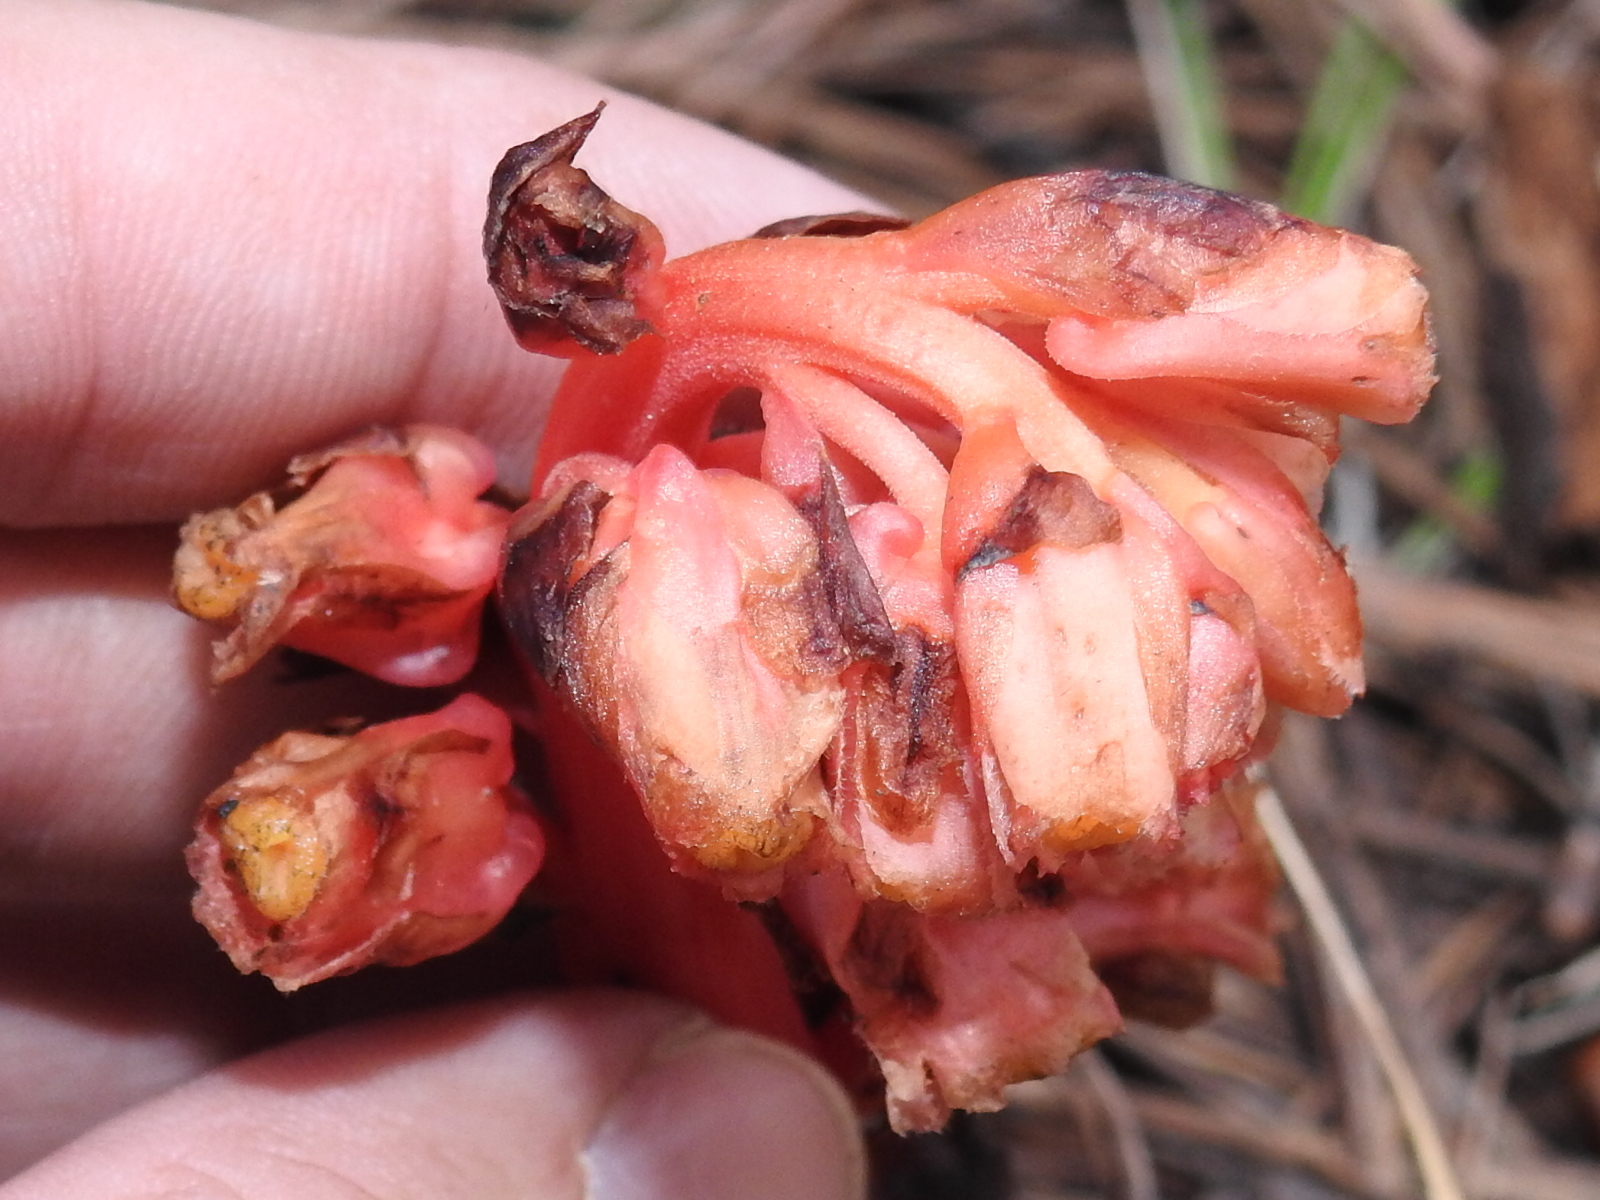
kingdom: Plantae
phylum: Tracheophyta
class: Magnoliopsida
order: Ericales
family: Ericaceae
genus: Hypopitys
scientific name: Hypopitys monotropa
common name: Yellow bird's-nest
